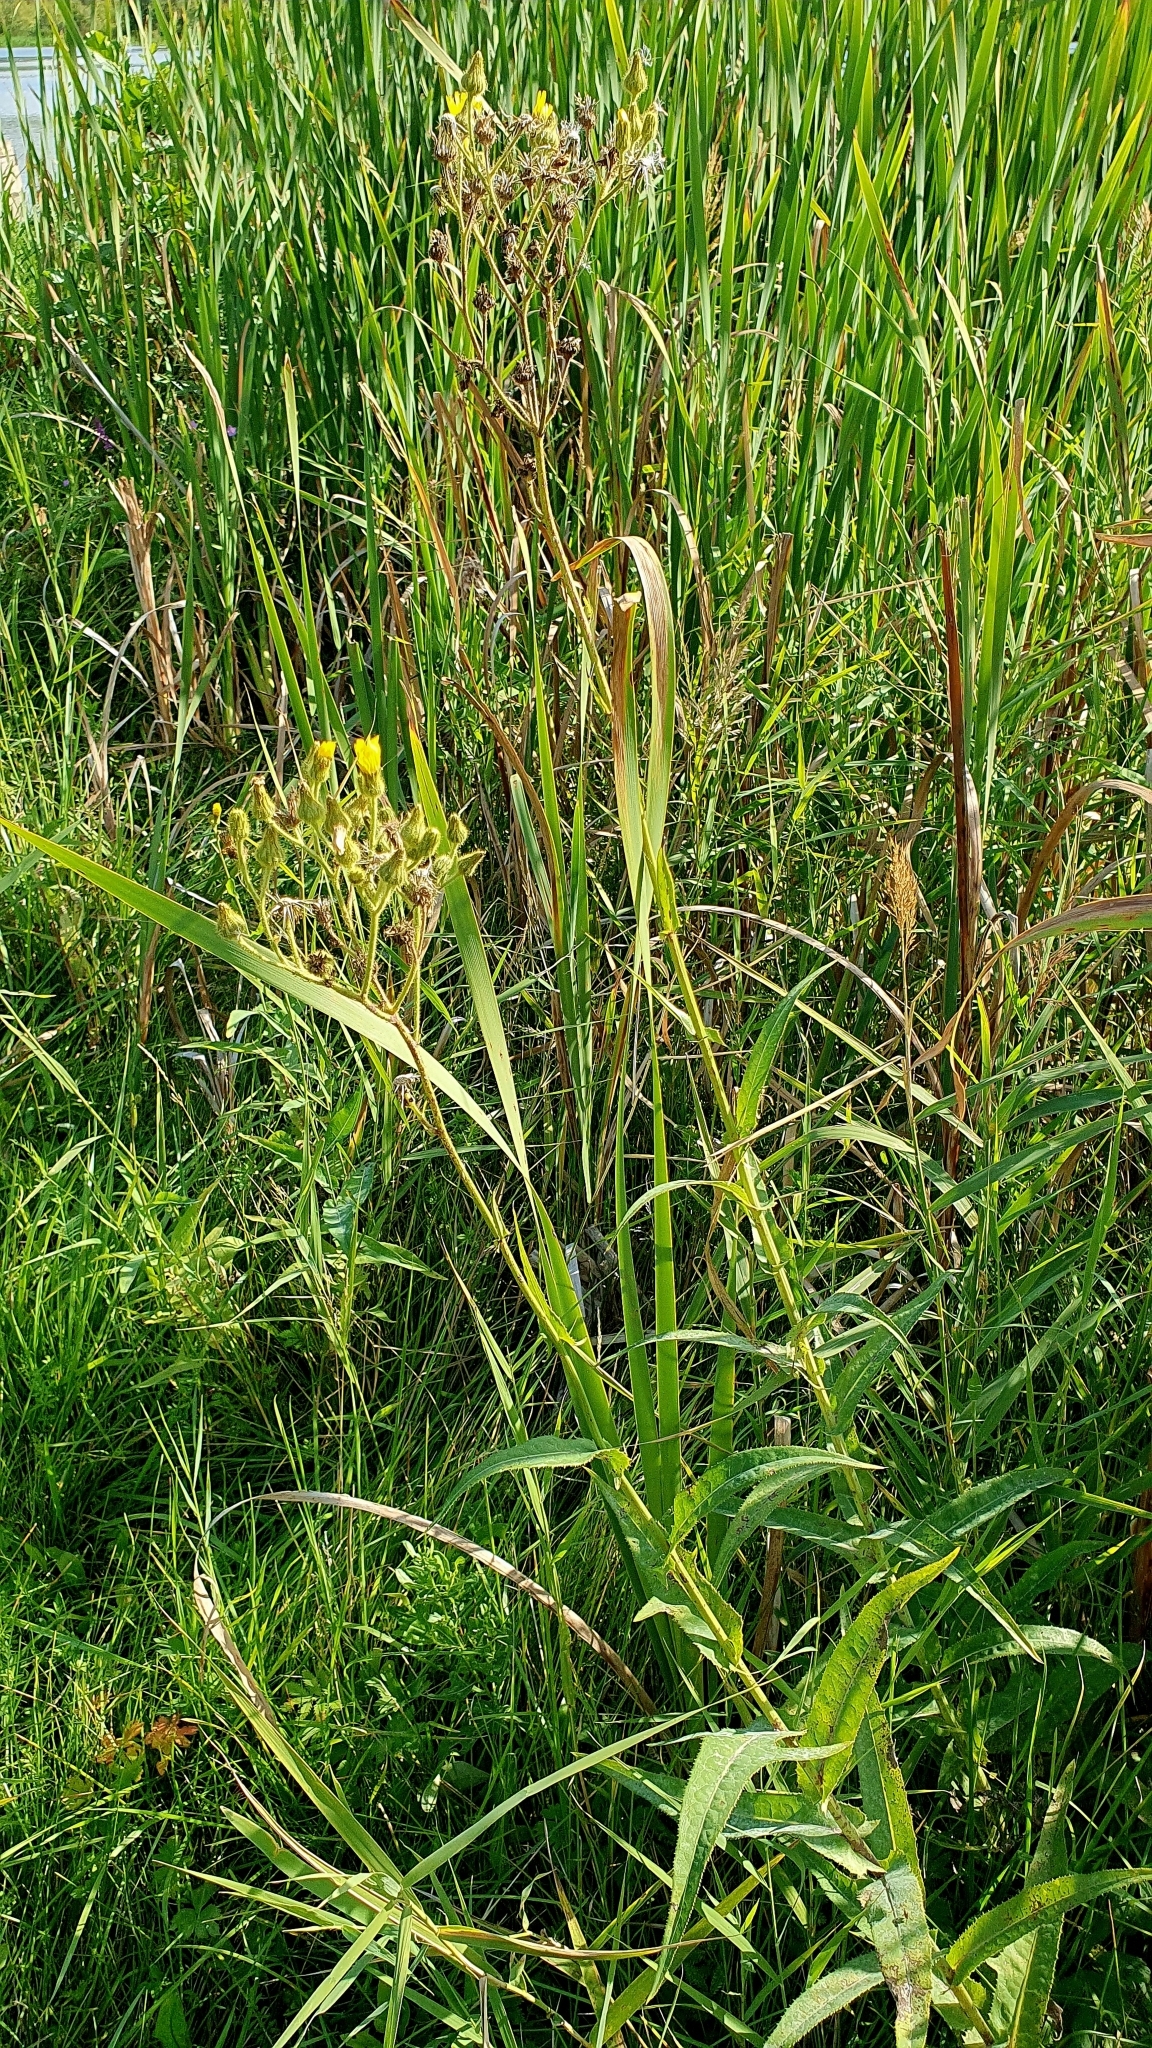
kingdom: Plantae
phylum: Tracheophyta
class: Magnoliopsida
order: Asterales
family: Asteraceae
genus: Sonchus
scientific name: Sonchus palustris
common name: Marsh sow-thistle
